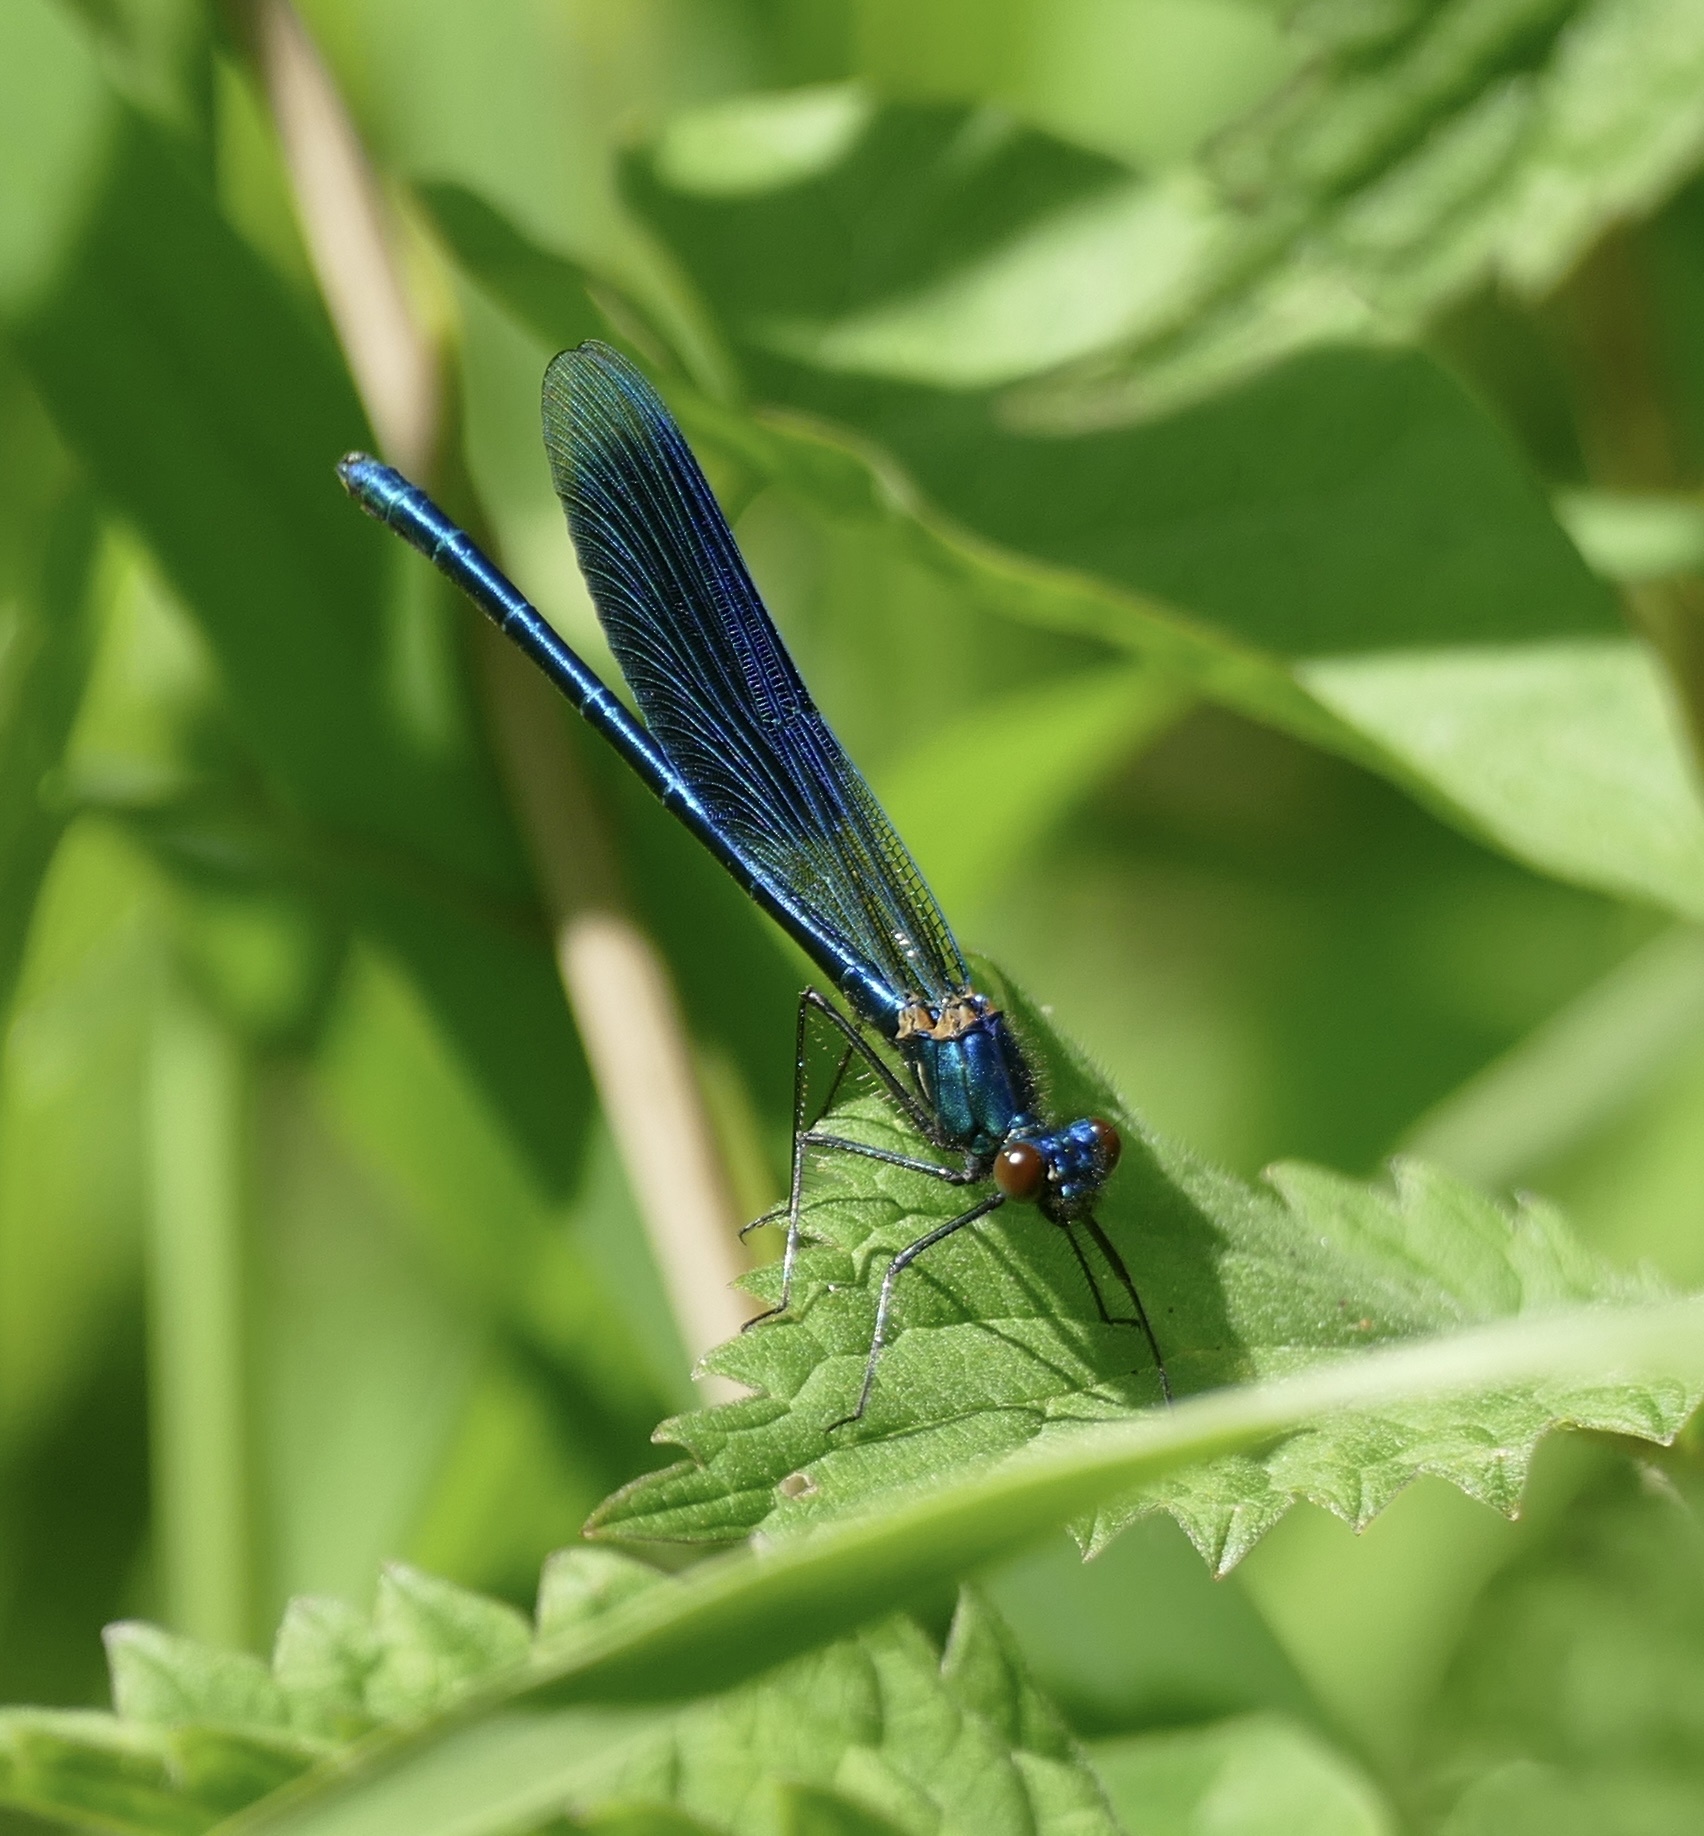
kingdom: Animalia
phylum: Arthropoda
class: Insecta
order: Odonata
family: Calopterygidae
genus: Calopteryx
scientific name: Calopteryx splendens
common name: Banded demoiselle
